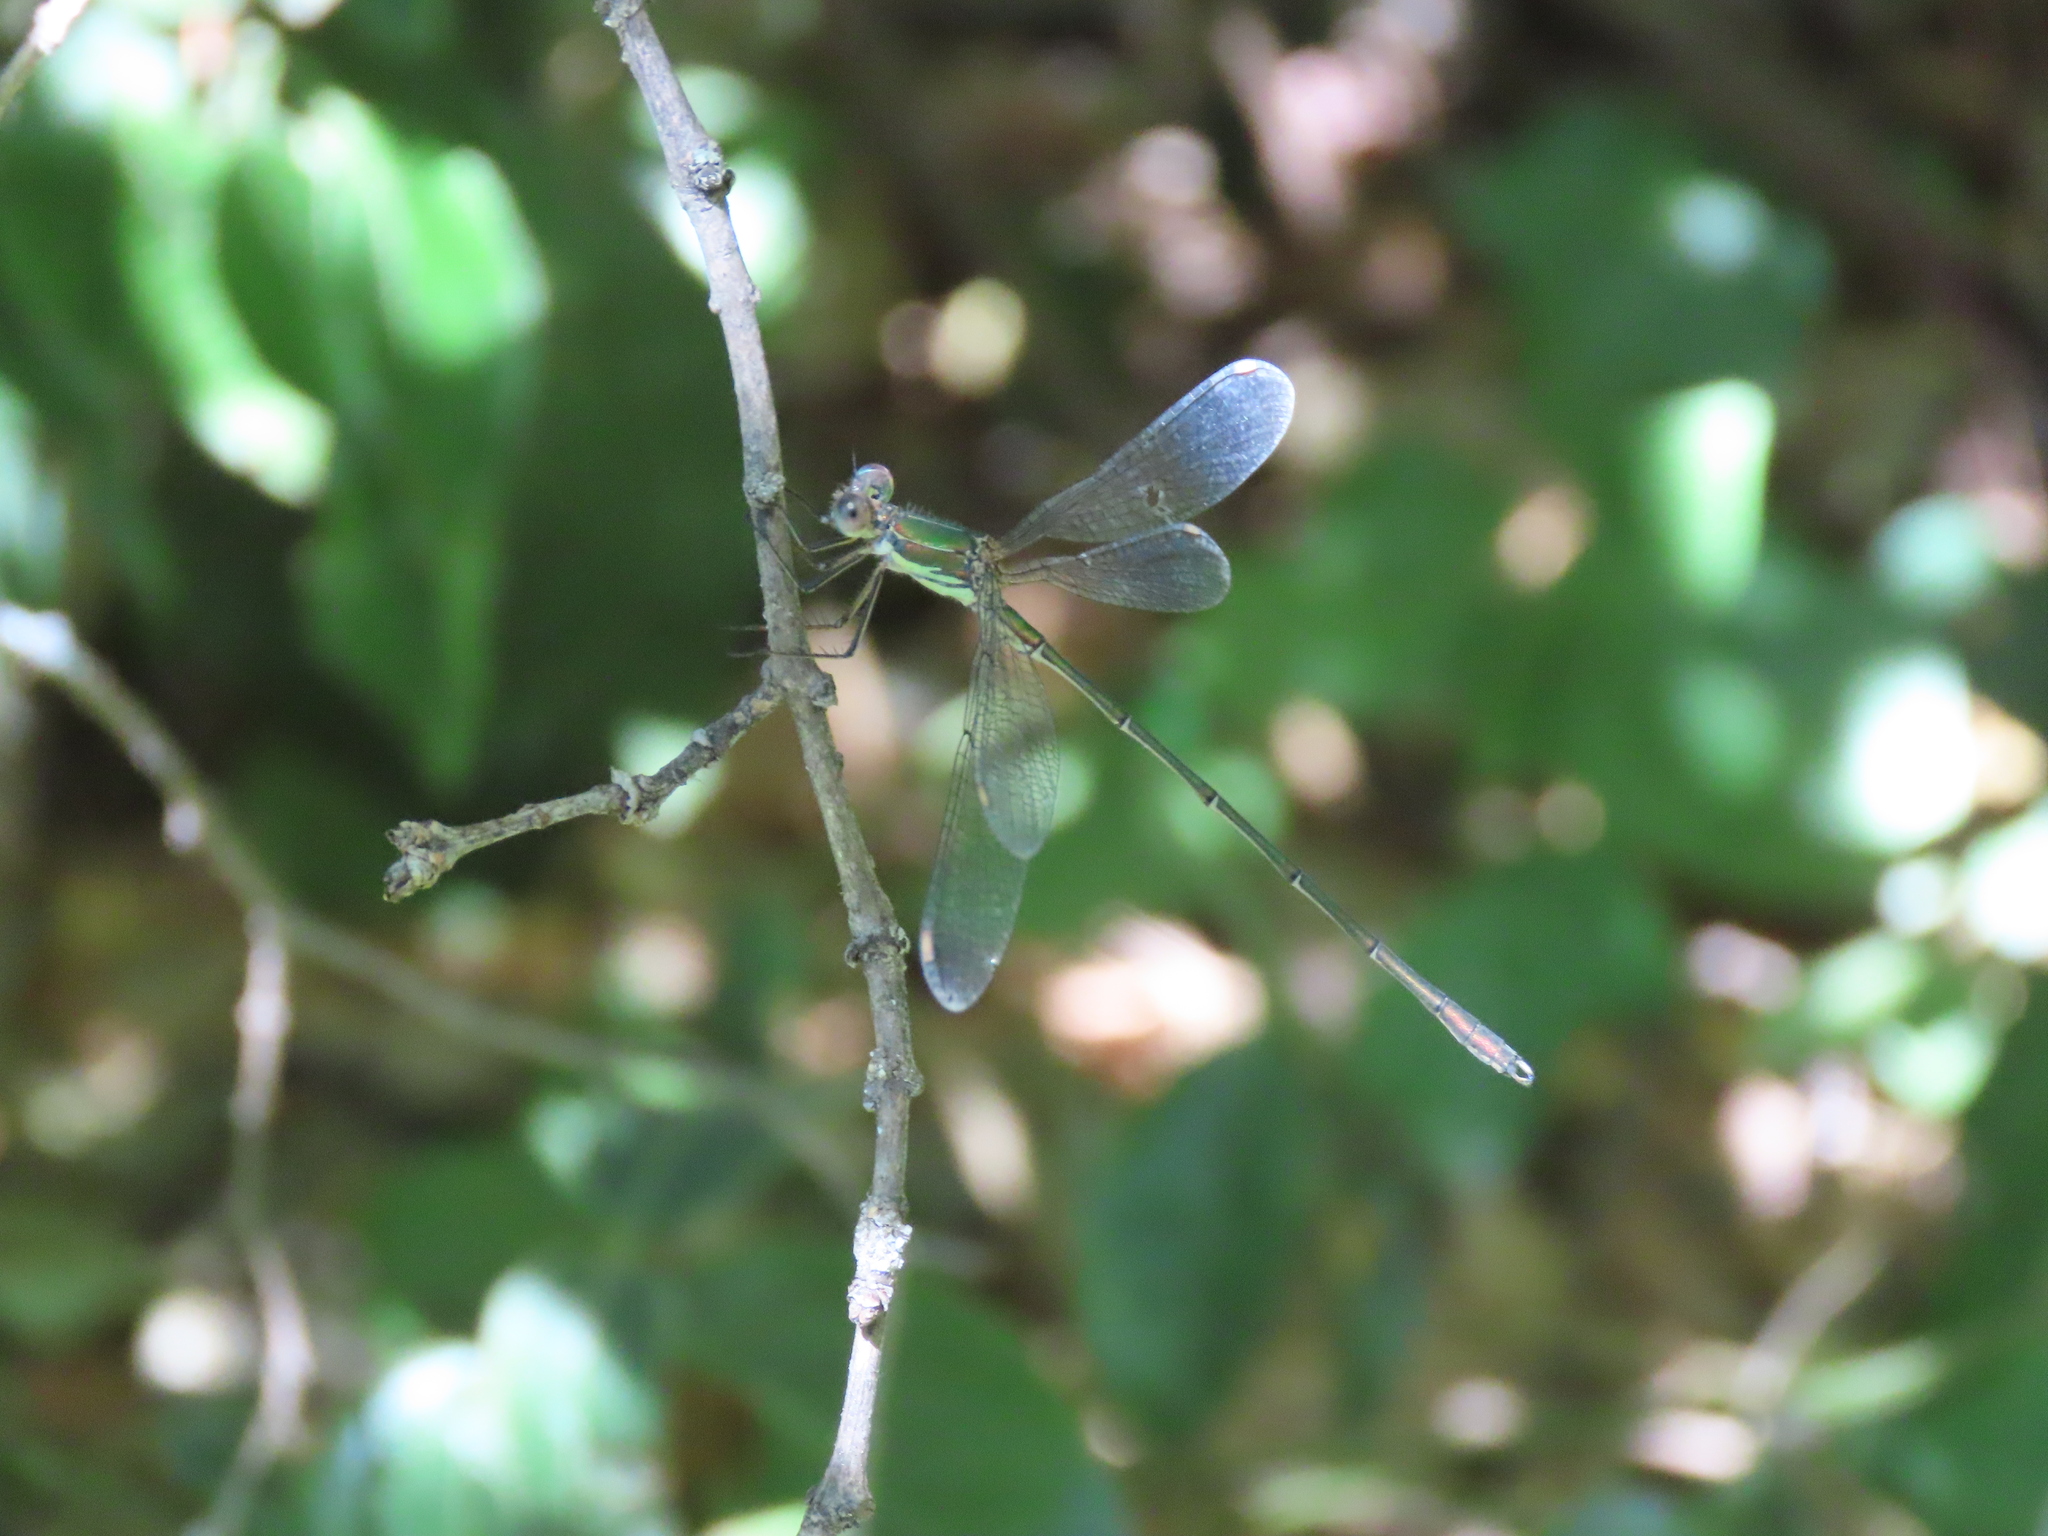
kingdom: Animalia
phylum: Arthropoda
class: Insecta
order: Odonata
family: Lestidae
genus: Chalcolestes
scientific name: Chalcolestes viridis
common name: Green emerald damselfly
